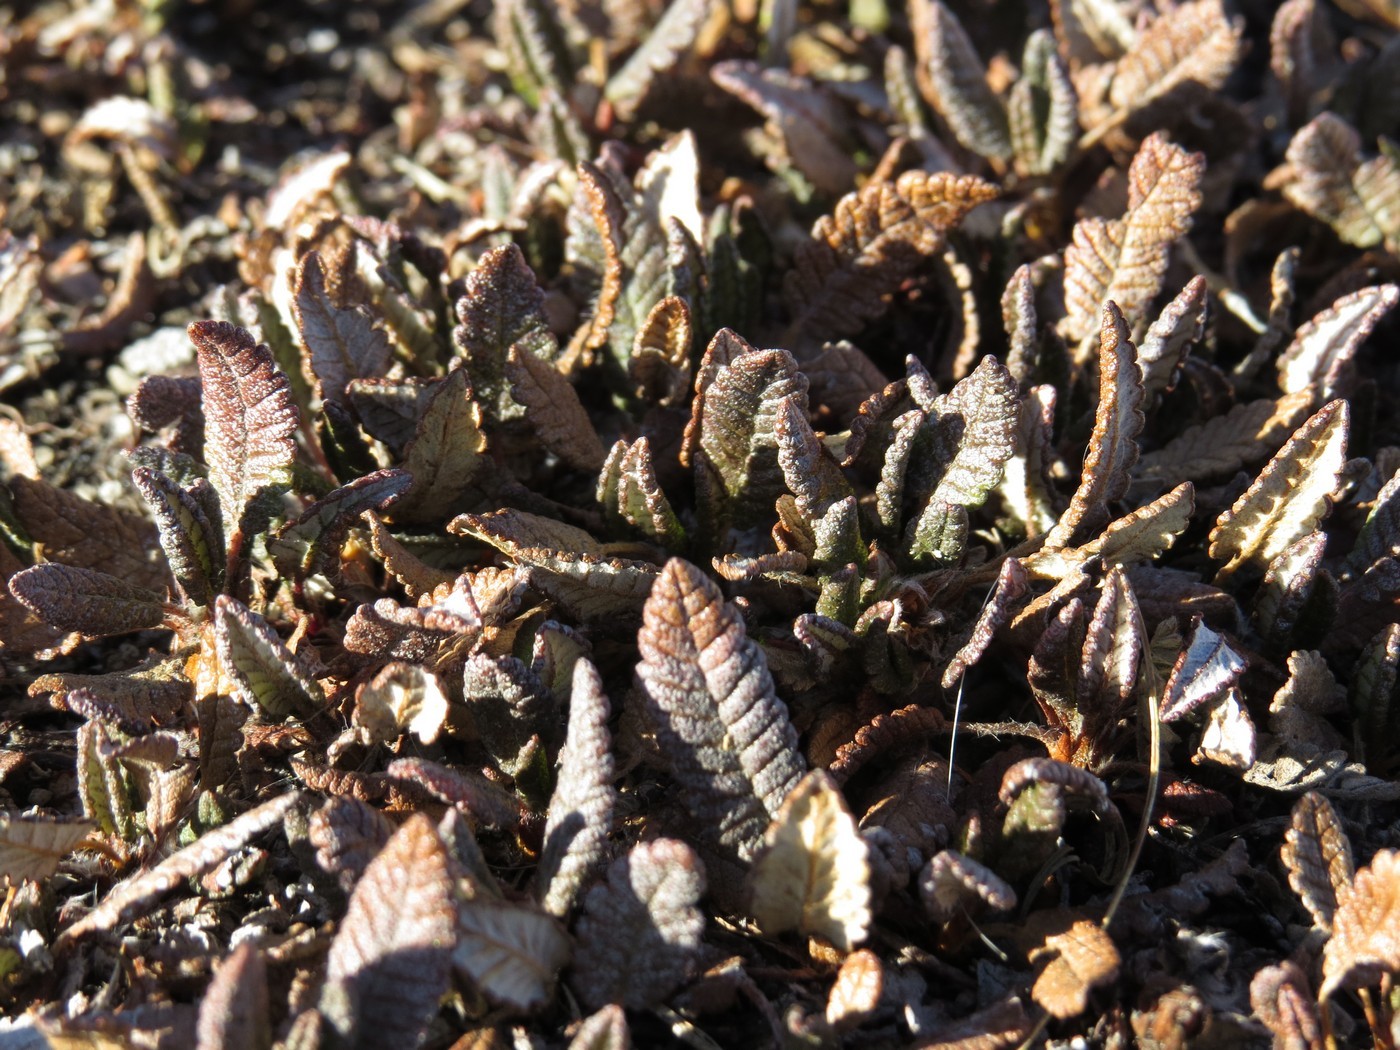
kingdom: Plantae
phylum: Tracheophyta
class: Magnoliopsida
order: Rosales
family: Rosaceae
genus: Dryas
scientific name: Dryas octopetala
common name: Eight-petal mountain-avens
